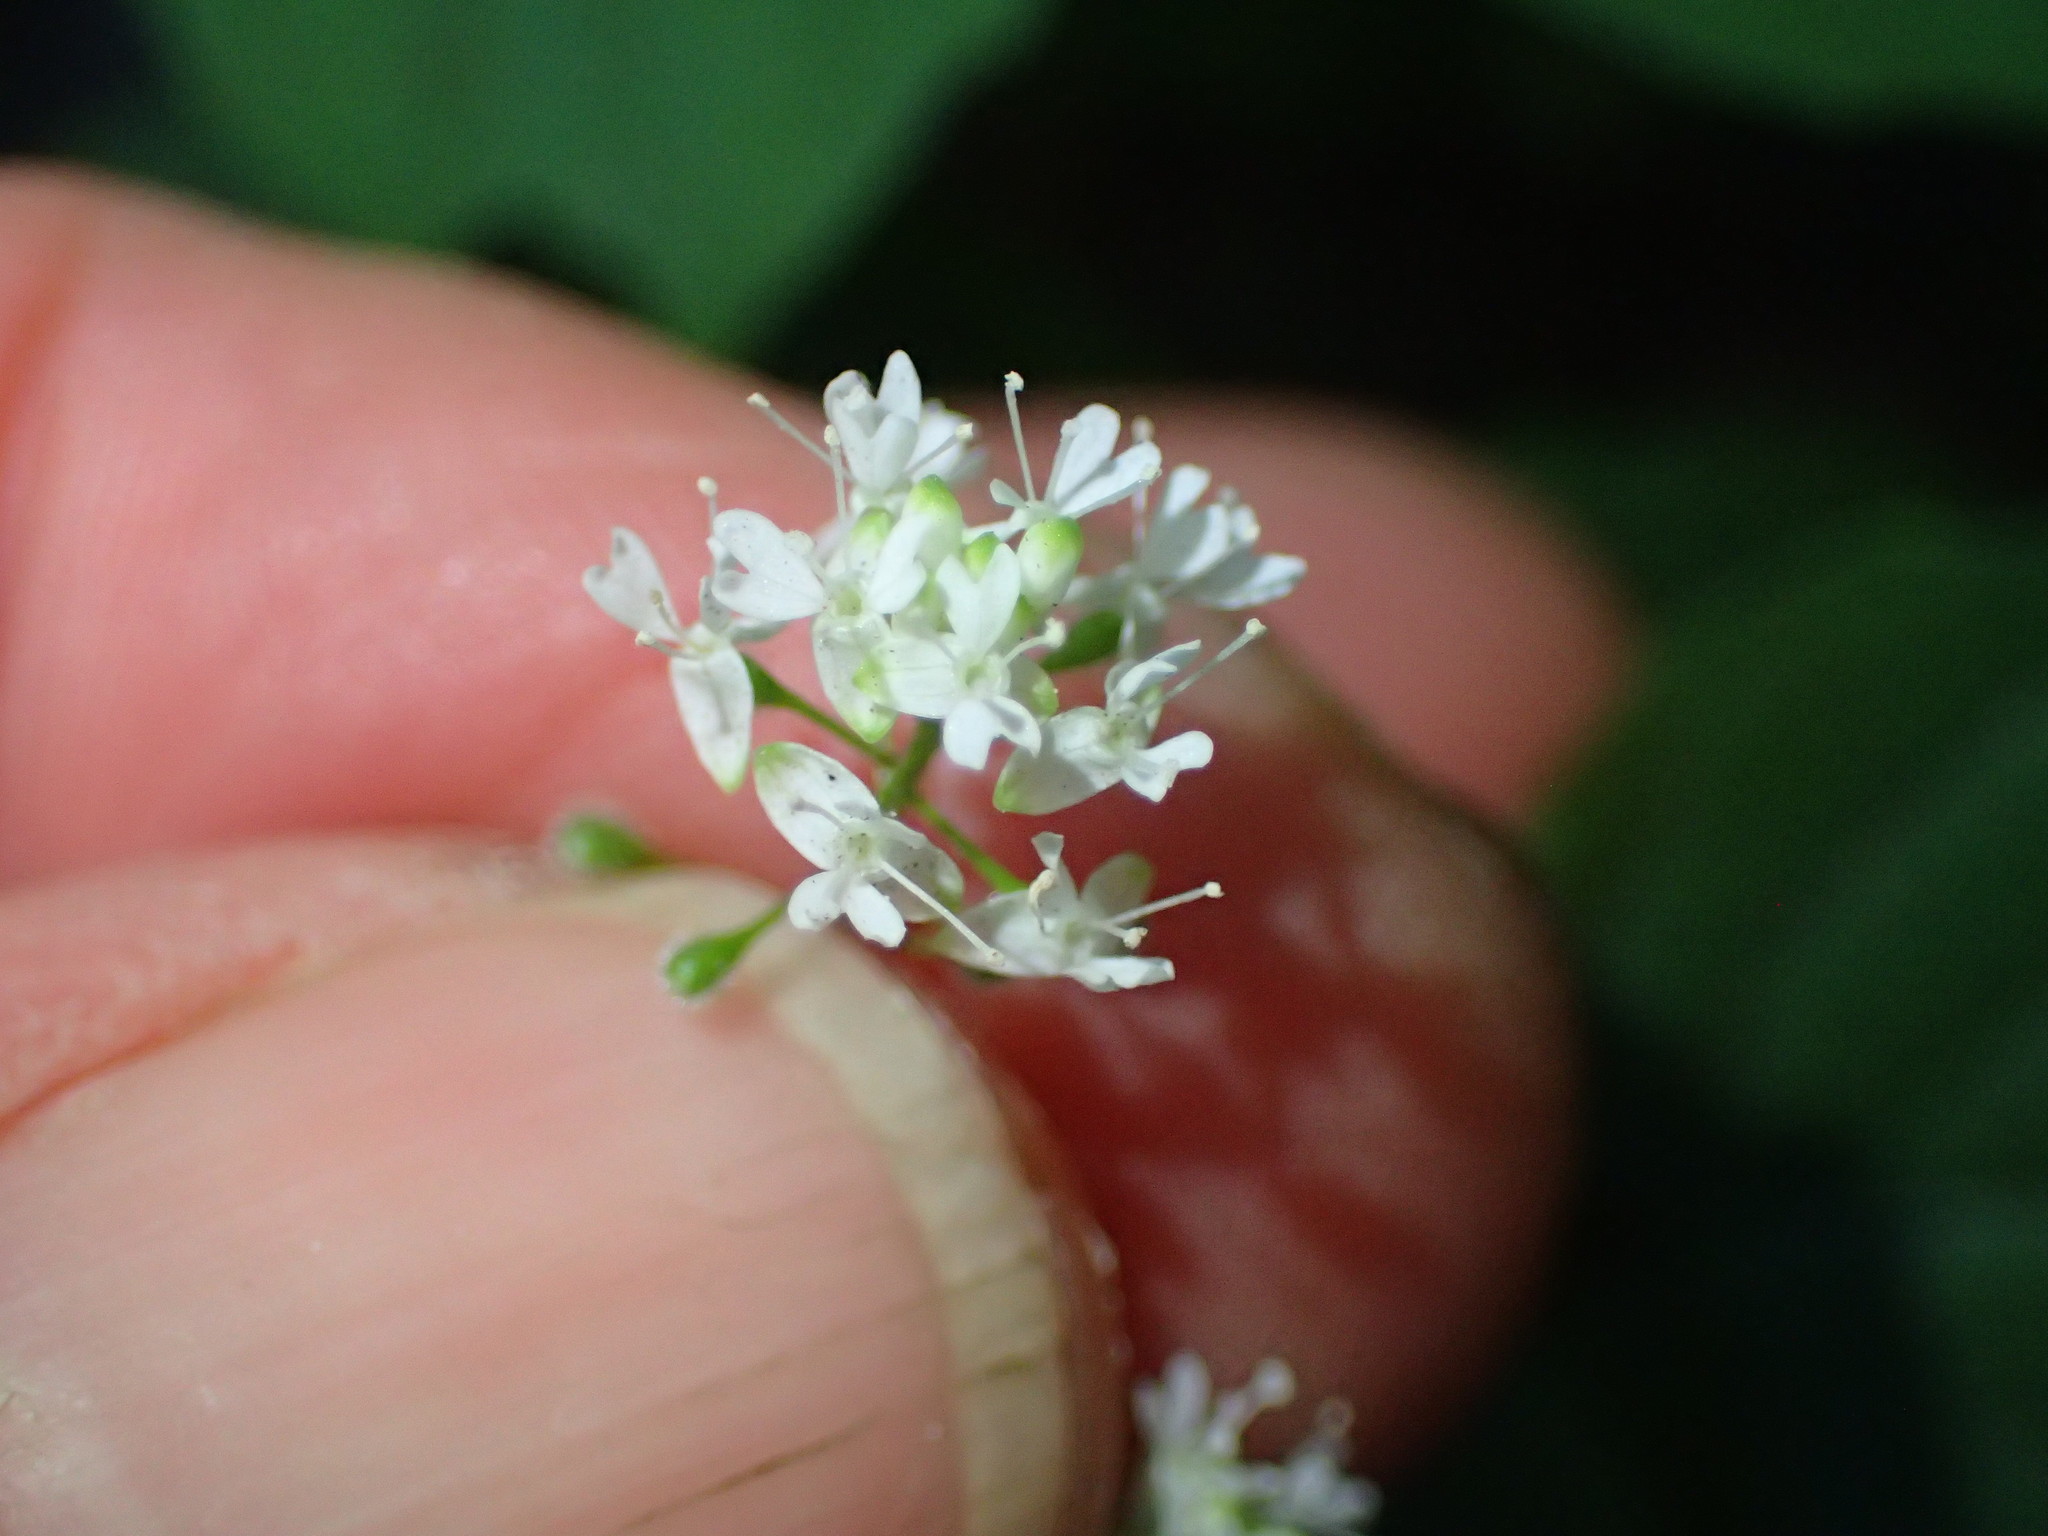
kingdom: Plantae
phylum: Tracheophyta
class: Magnoliopsida
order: Myrtales
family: Onagraceae
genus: Circaea
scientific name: Circaea alpina
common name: Alpine enchanter's-nightshade
